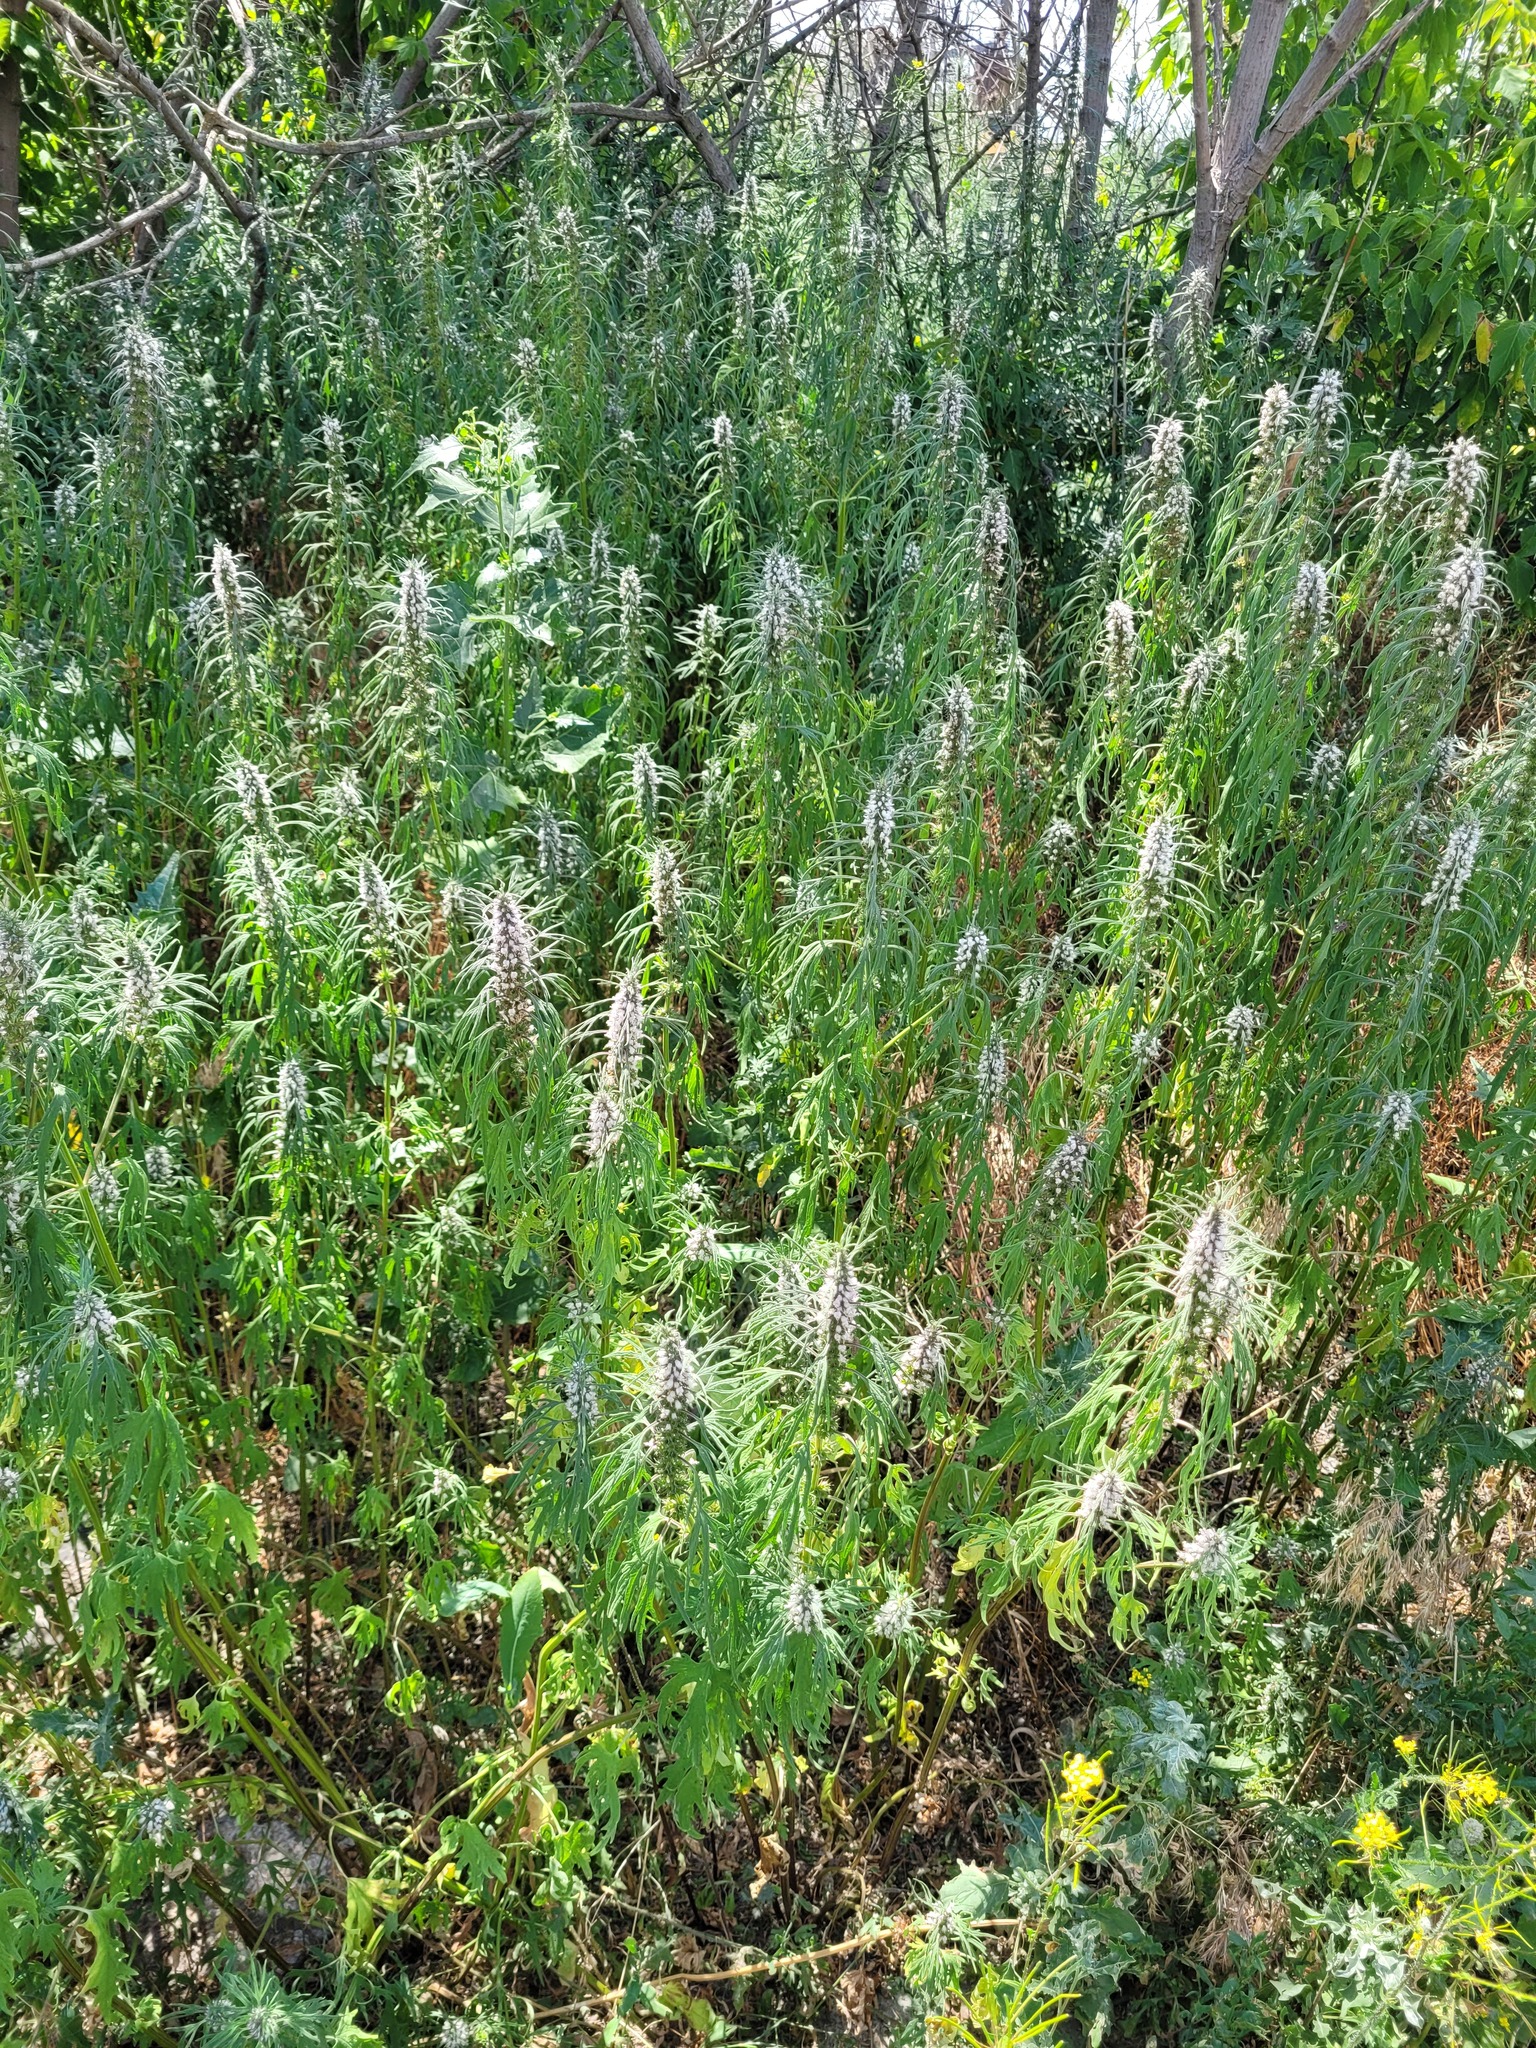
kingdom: Plantae
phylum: Tracheophyta
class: Magnoliopsida
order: Lamiales
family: Lamiaceae
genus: Leonurus
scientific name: Leonurus glaucescens
